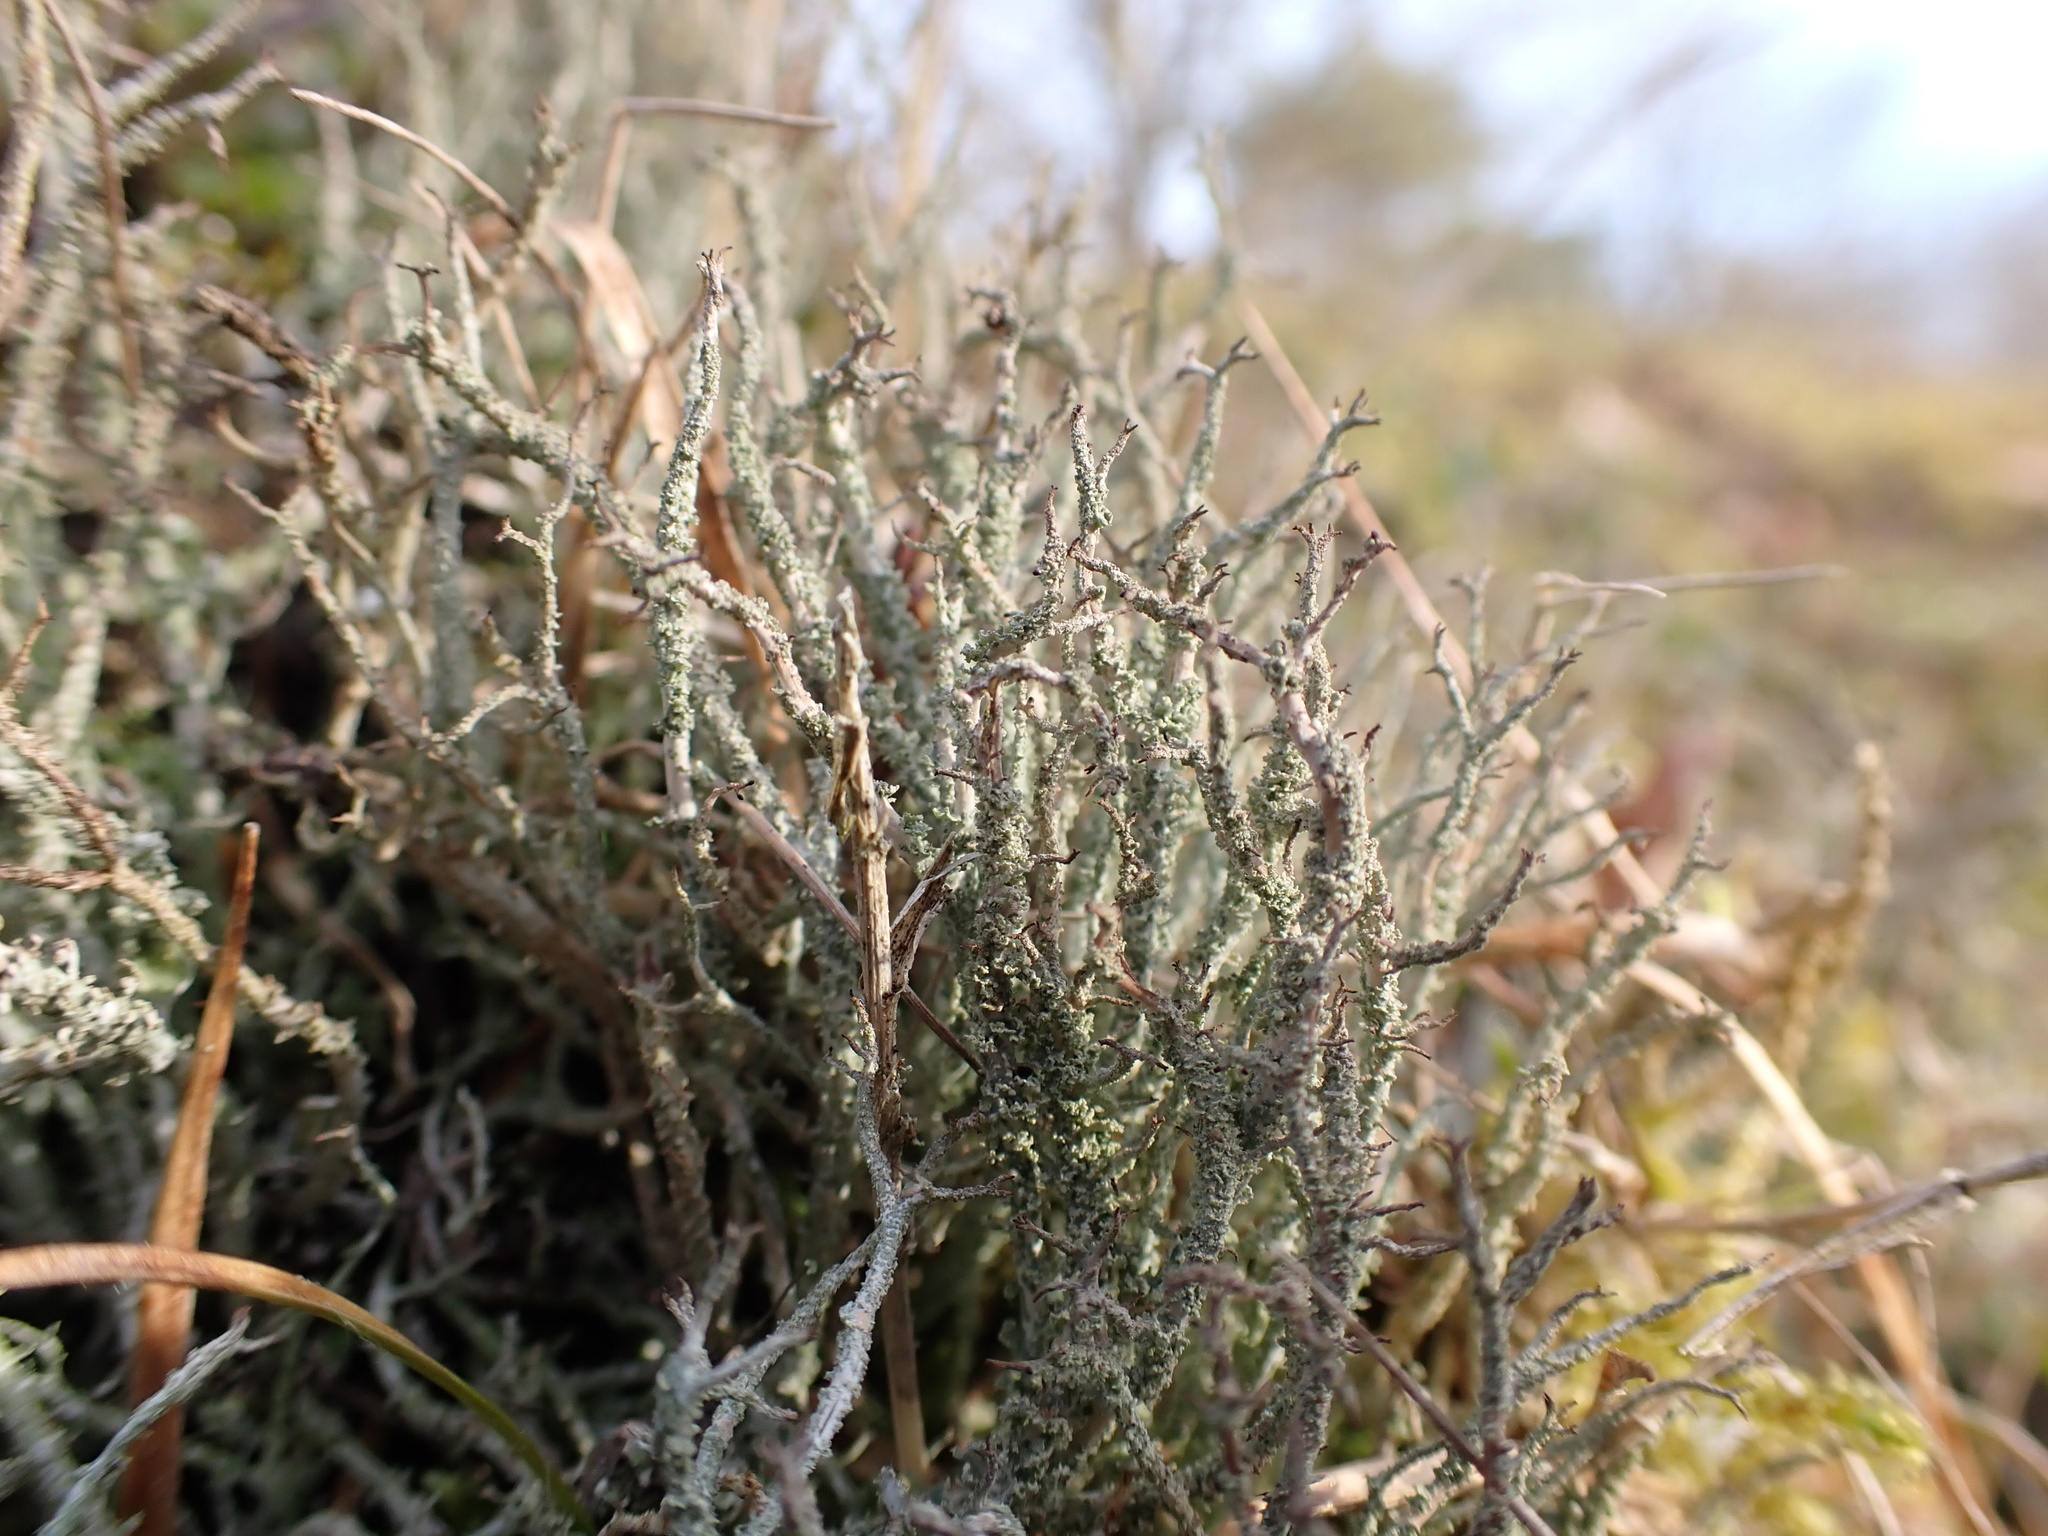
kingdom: Fungi
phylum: Ascomycota
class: Lecanoromycetes
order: Lecanorales
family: Cladoniaceae
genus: Cladonia
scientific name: Cladonia scabriuscula
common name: Mealy forked clad lichen
